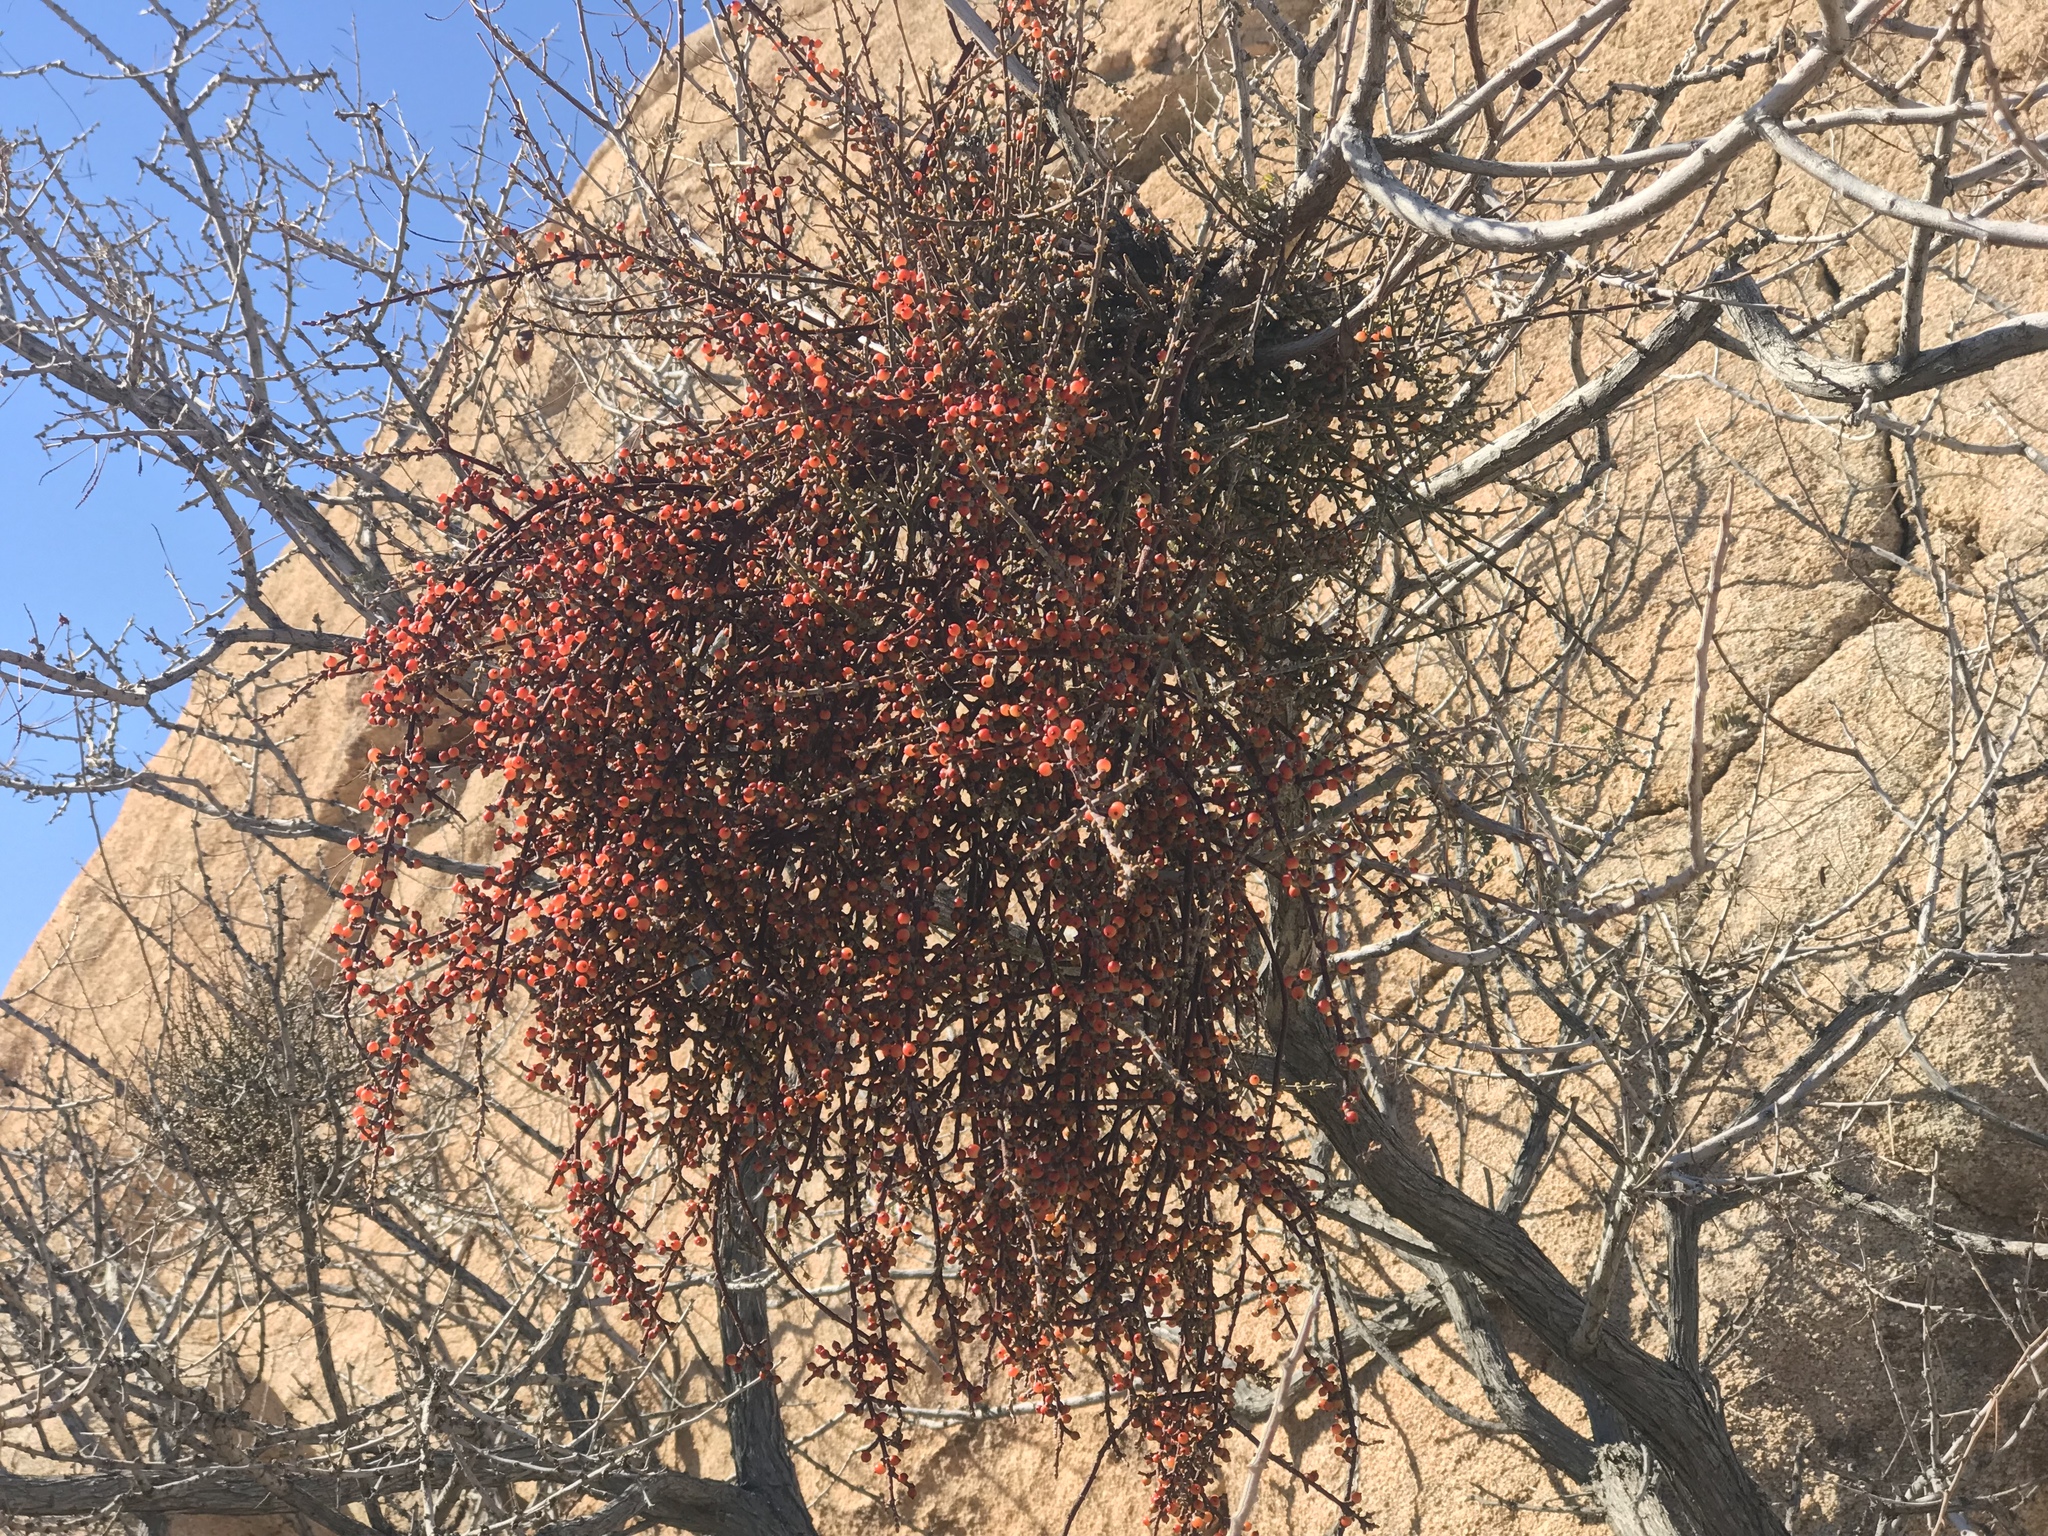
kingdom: Plantae
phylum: Tracheophyta
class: Magnoliopsida
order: Santalales
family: Viscaceae
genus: Phoradendron
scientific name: Phoradendron californicum
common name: Acacia mistletoe
